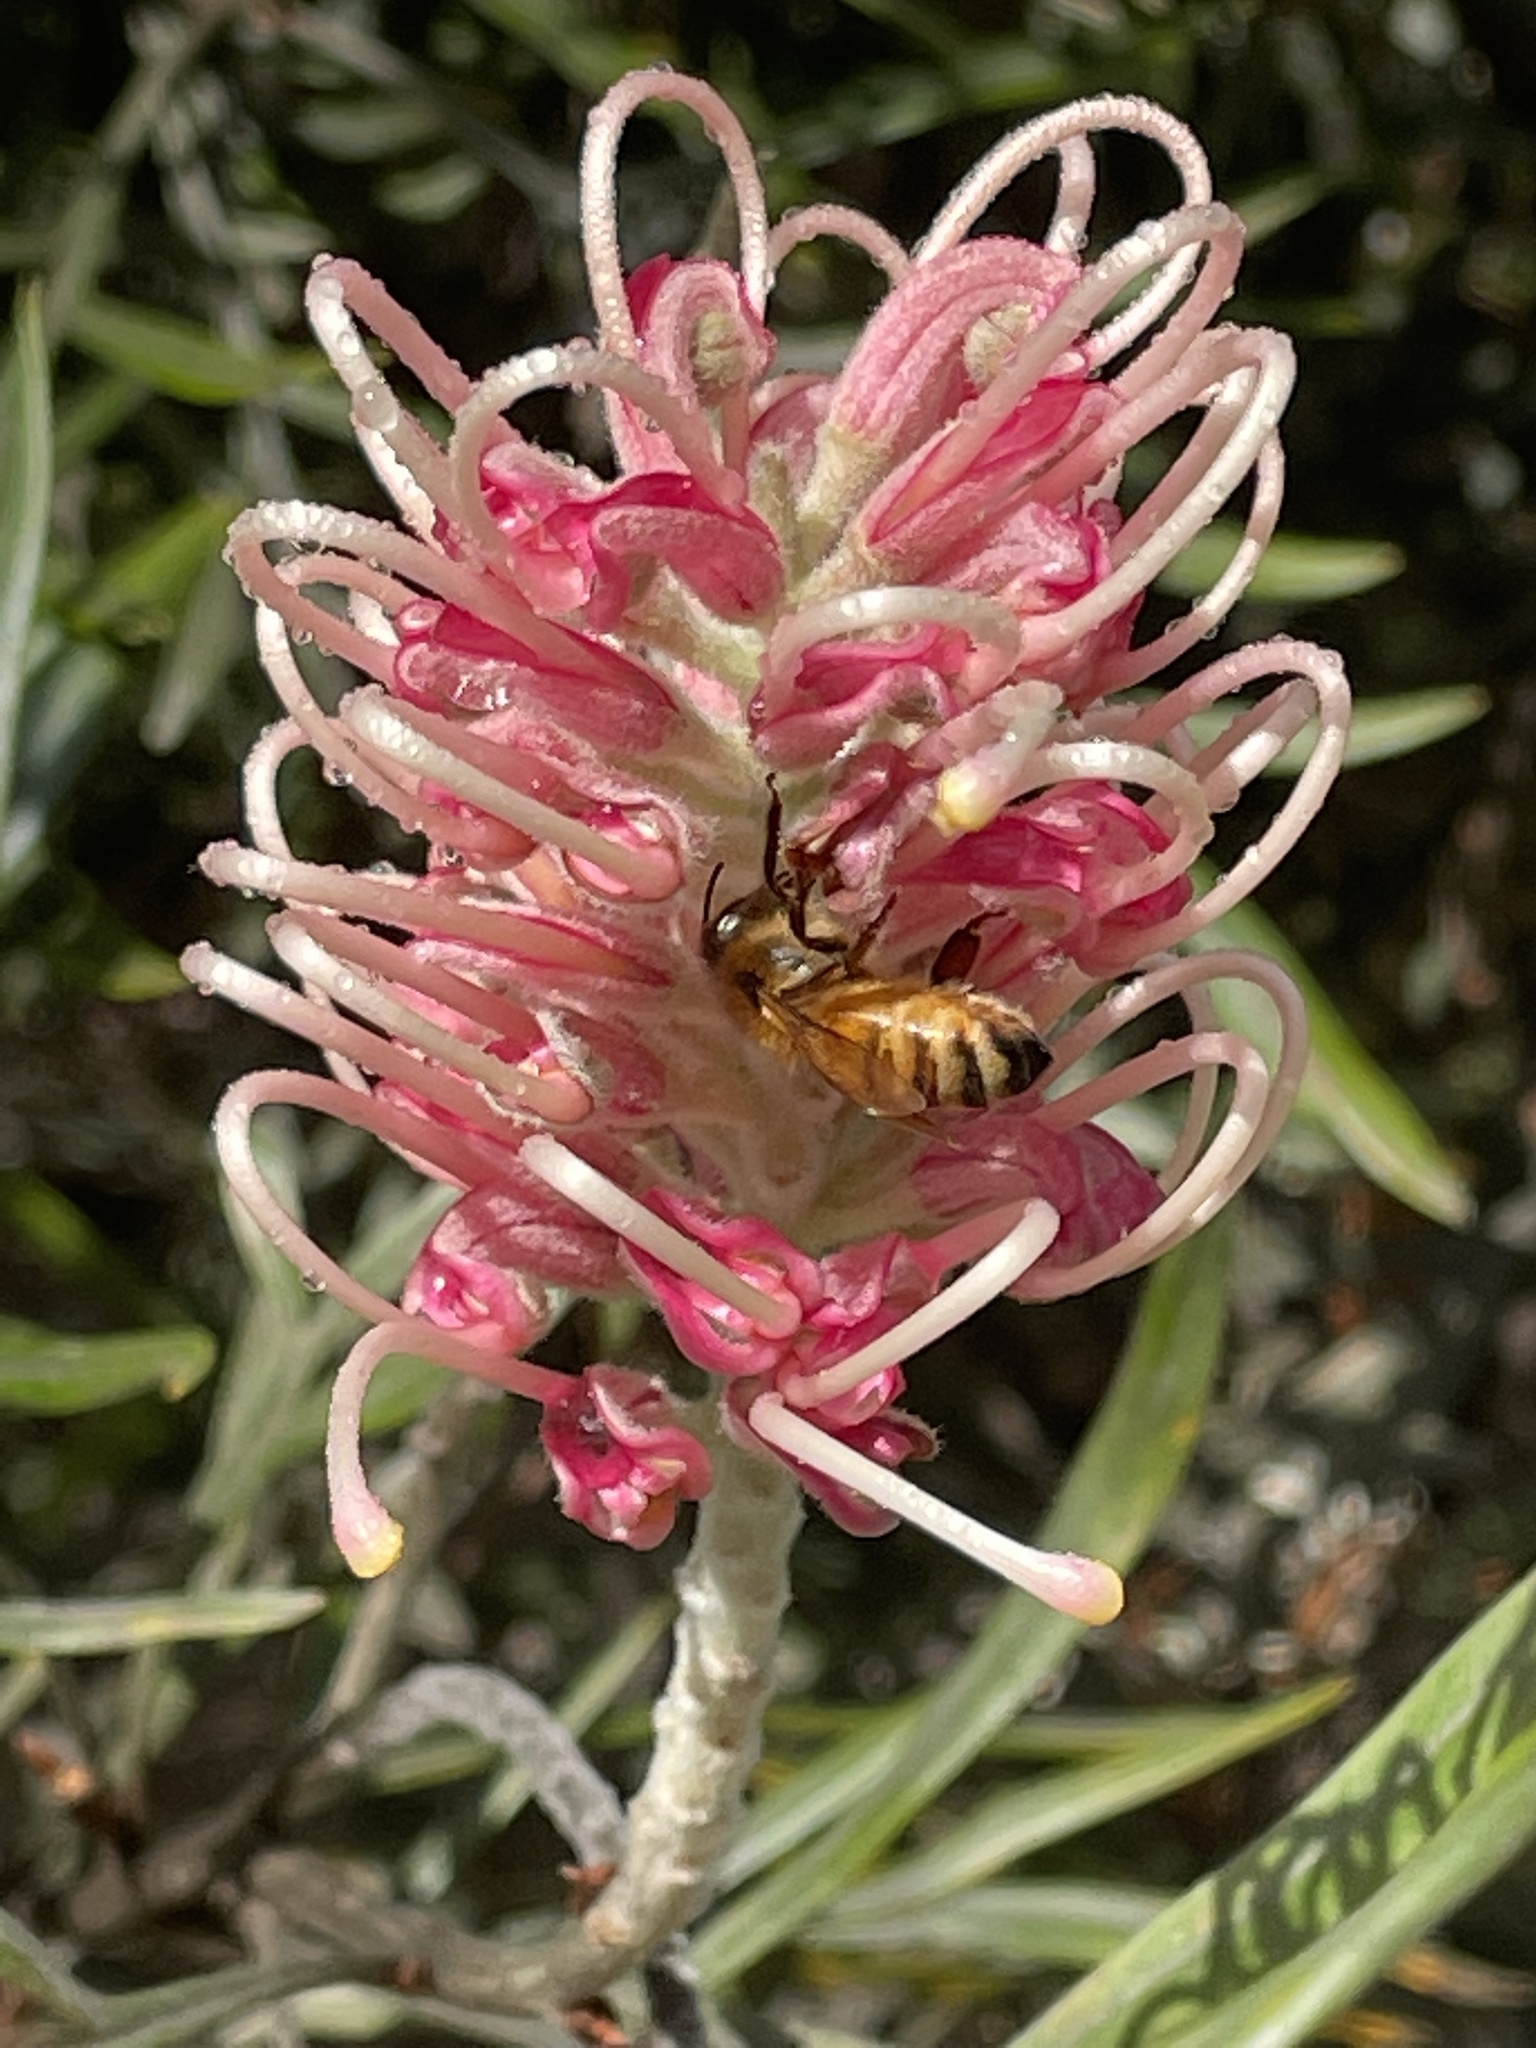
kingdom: Animalia
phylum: Arthropoda
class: Insecta
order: Hymenoptera
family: Apidae
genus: Apis
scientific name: Apis mellifera
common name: Honey bee
